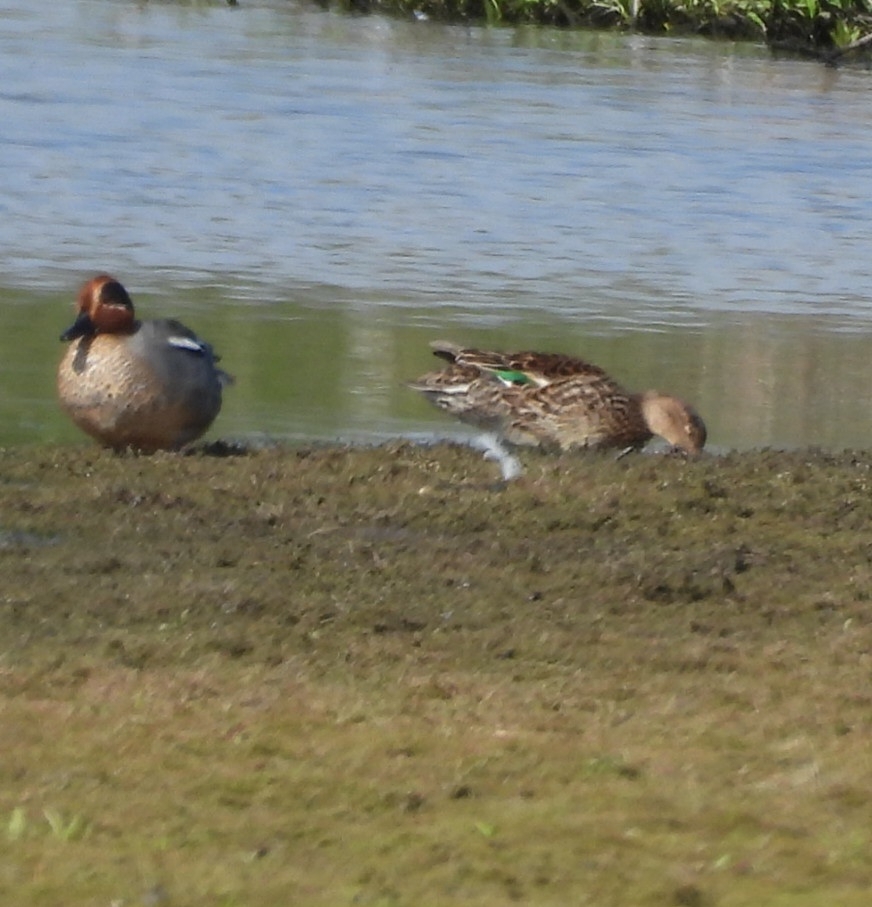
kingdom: Animalia
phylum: Chordata
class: Aves
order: Anseriformes
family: Anatidae
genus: Anas
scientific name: Anas crecca
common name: Eurasian teal
